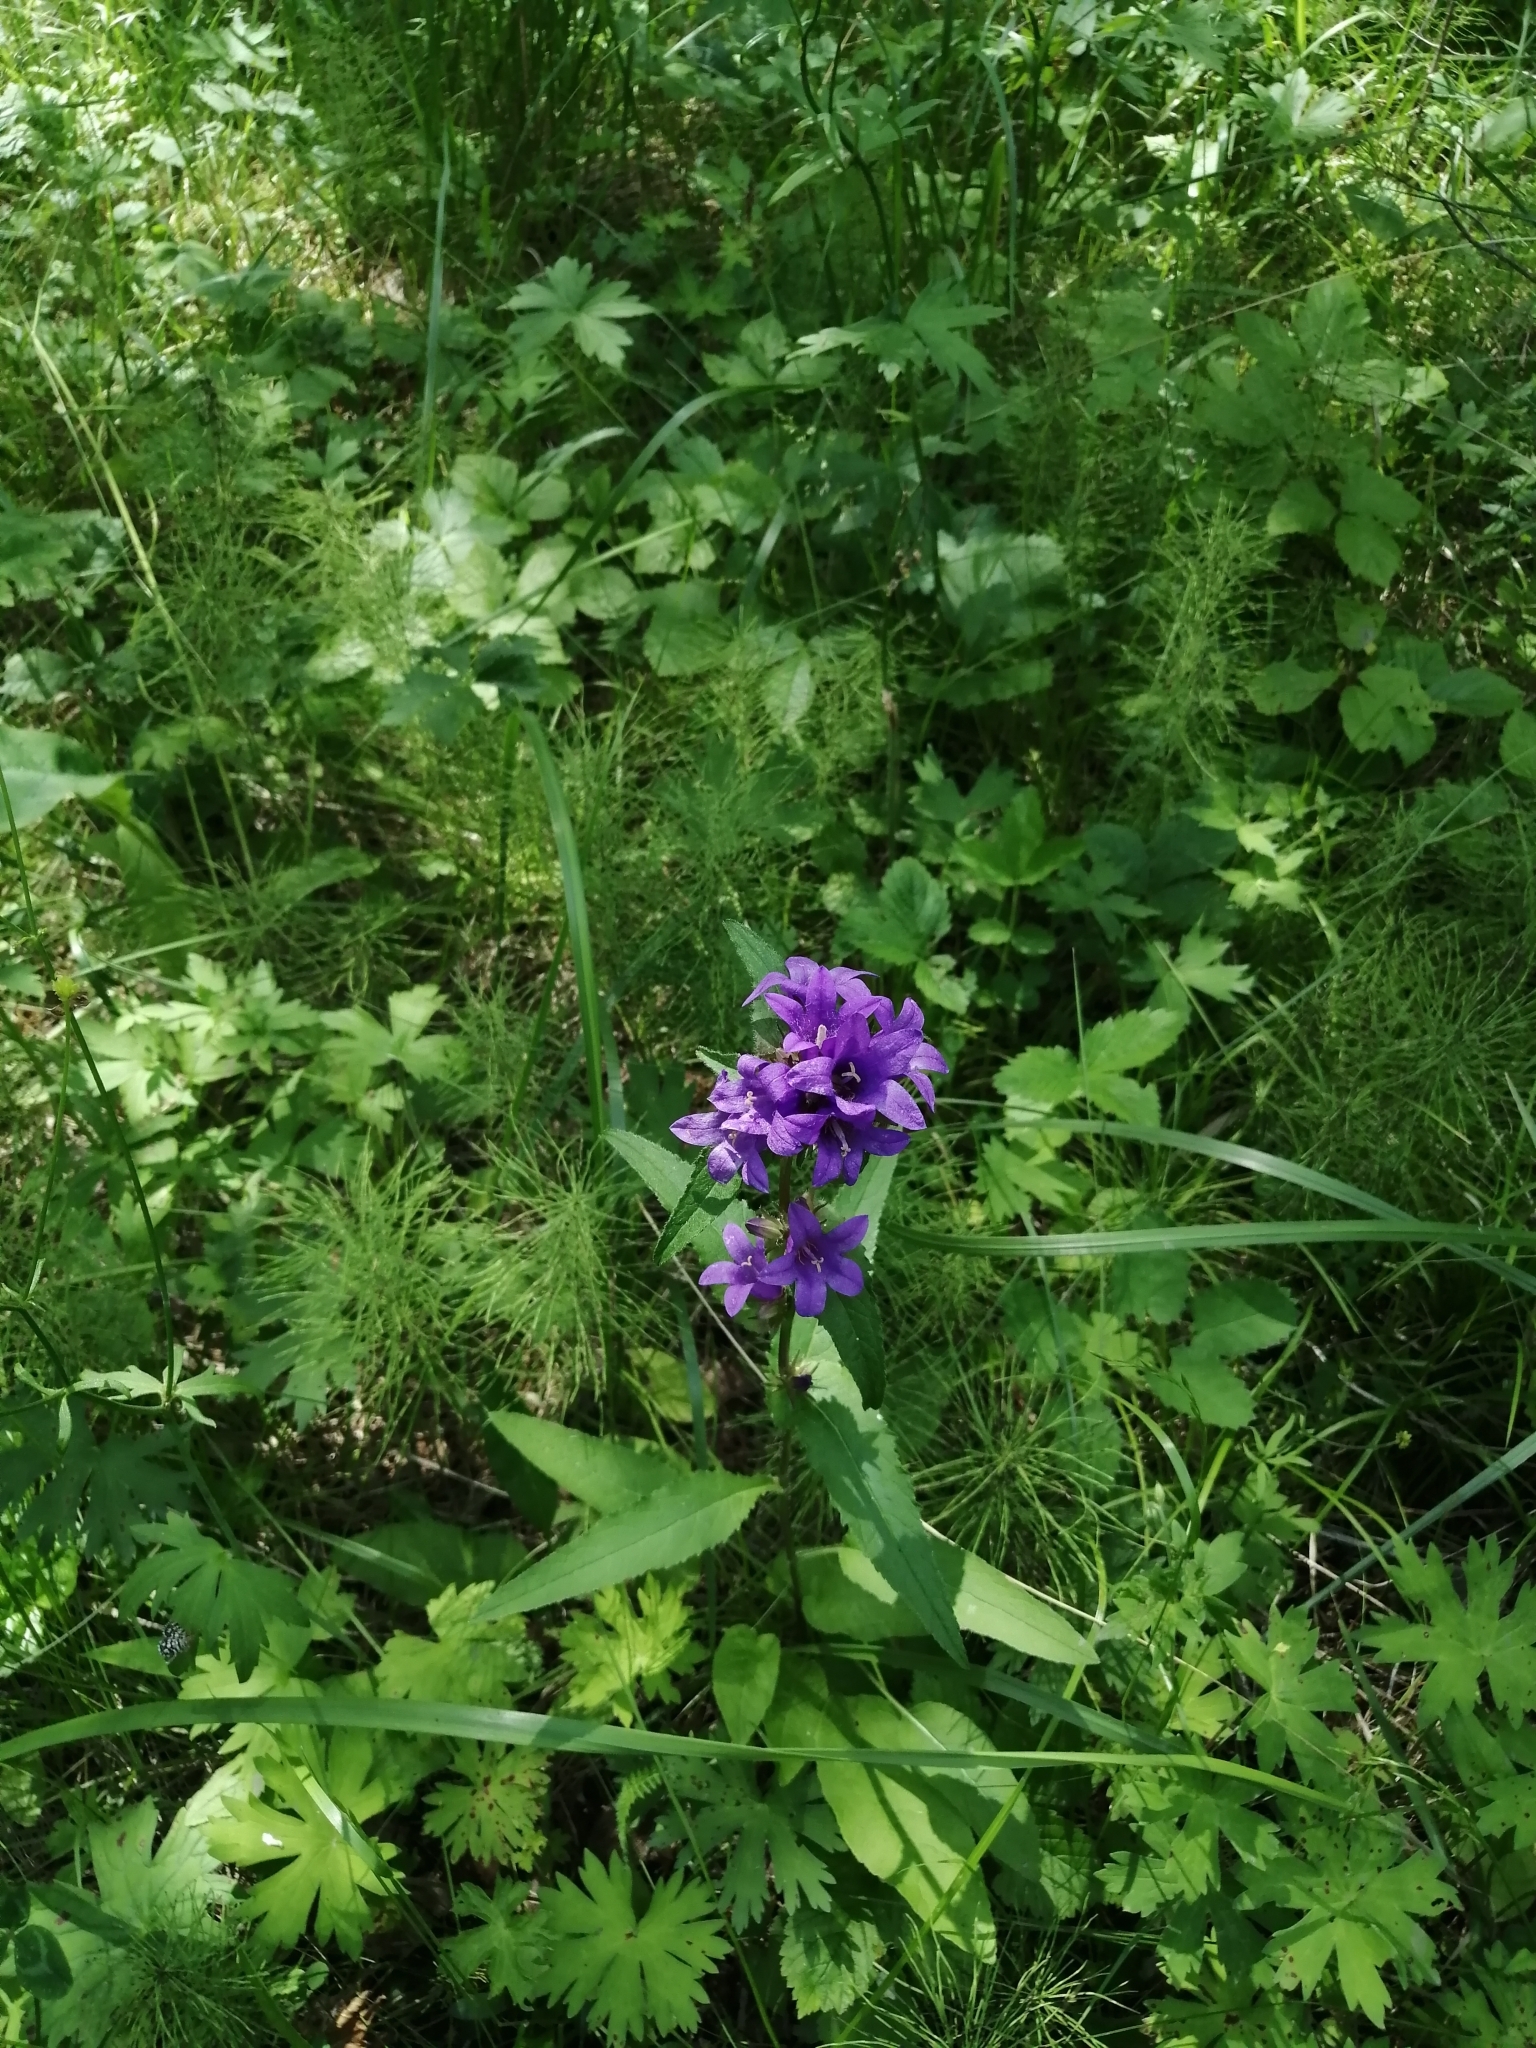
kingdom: Plantae
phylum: Tracheophyta
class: Magnoliopsida
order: Asterales
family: Campanulaceae
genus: Campanula
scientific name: Campanula glomerata
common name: Clustered bellflower
